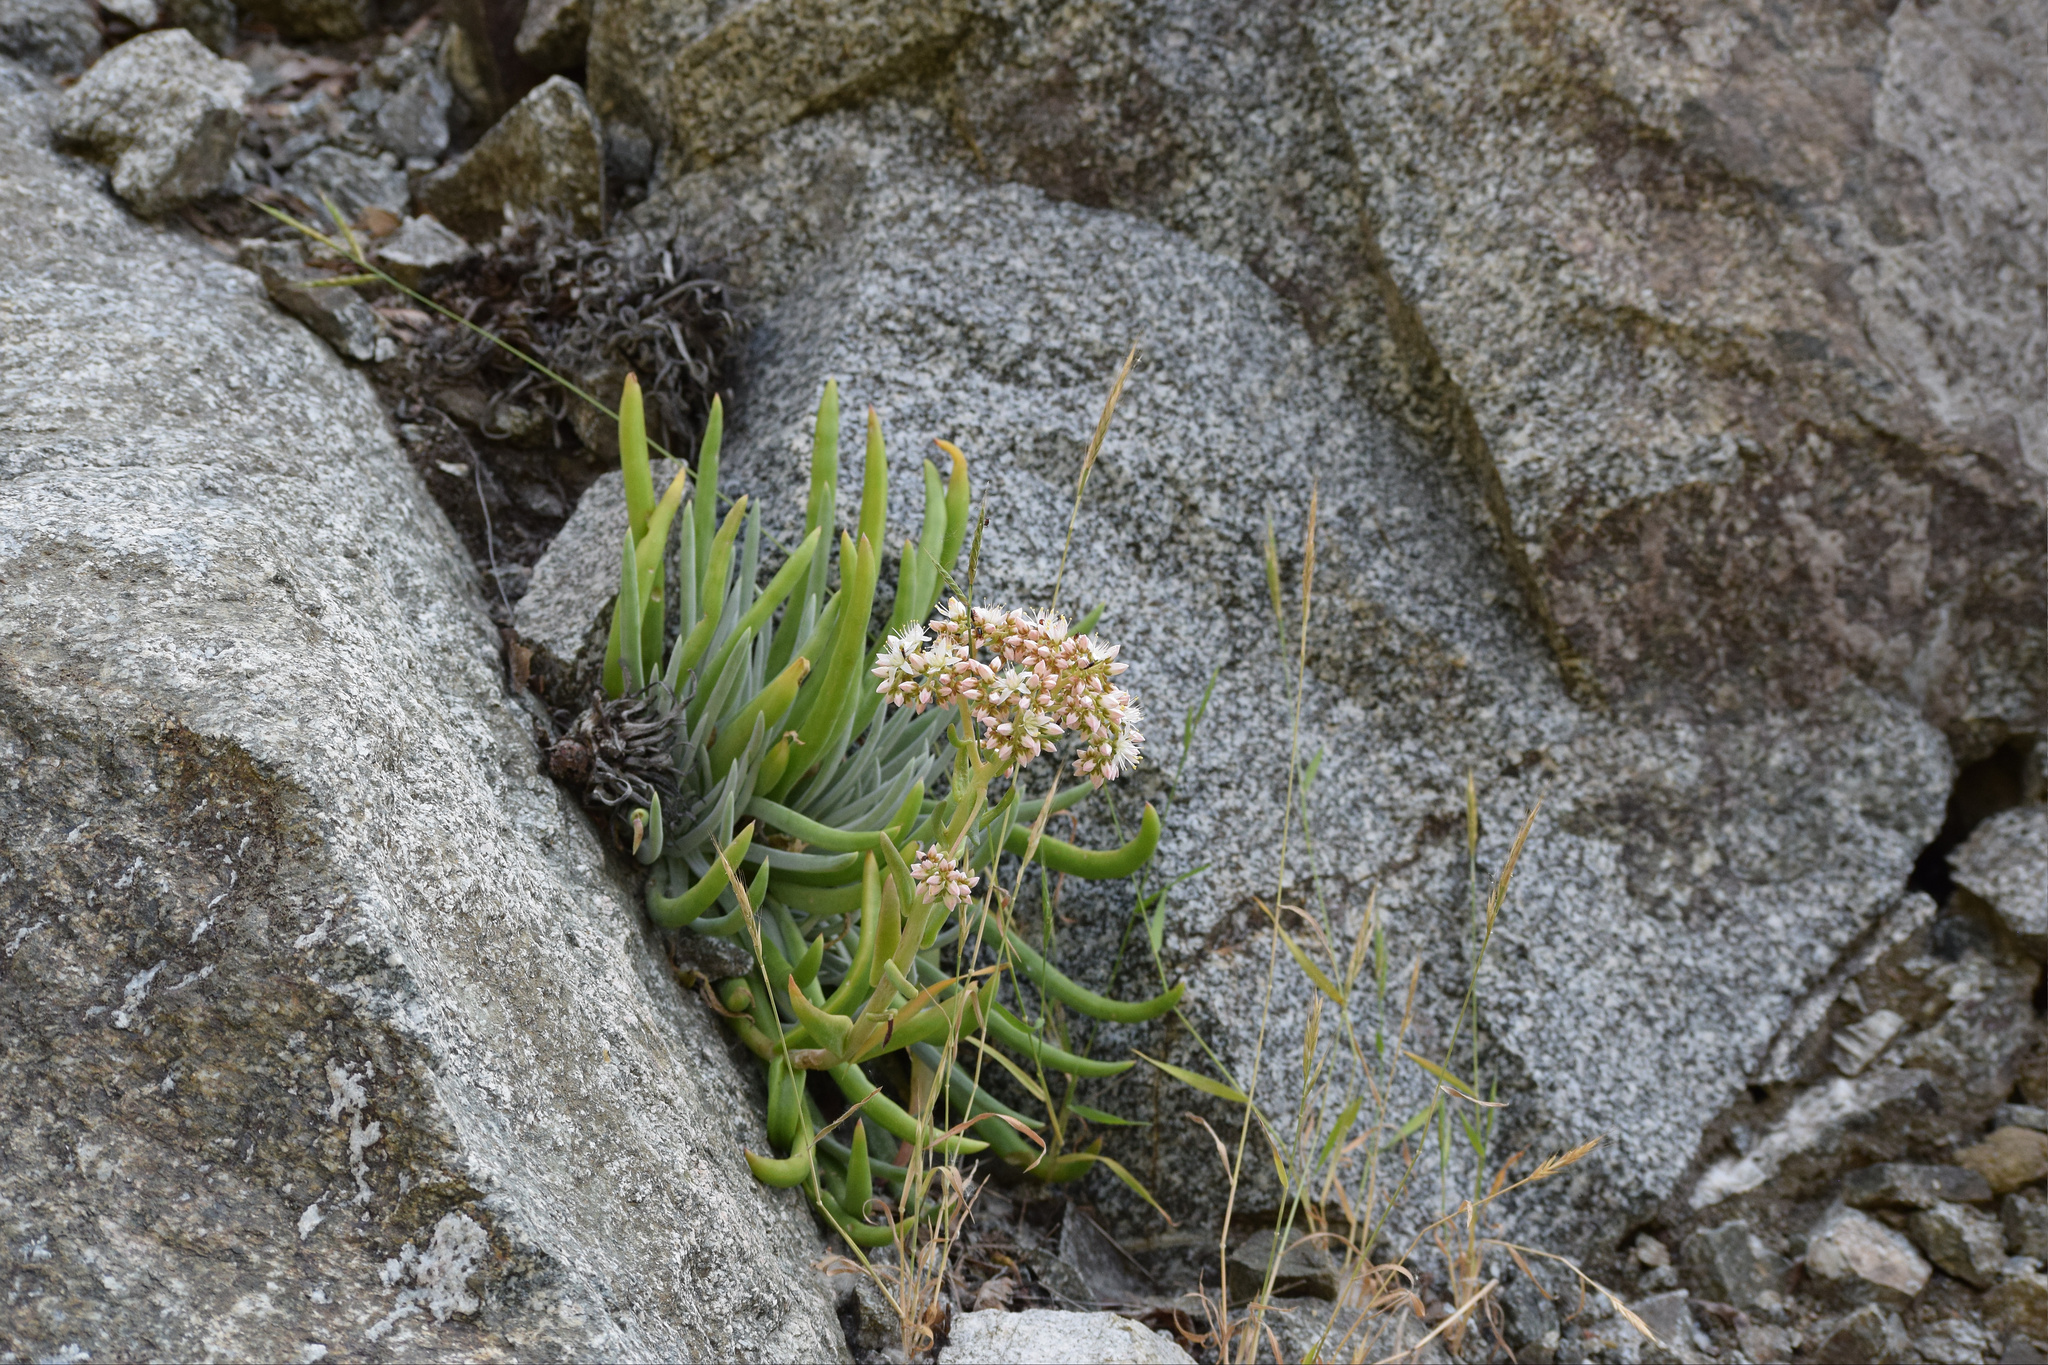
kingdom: Plantae
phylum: Tracheophyta
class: Magnoliopsida
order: Saxifragales
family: Crassulaceae
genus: Dudleya
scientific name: Dudleya densiflora
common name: San gabriel mountains dudleya
